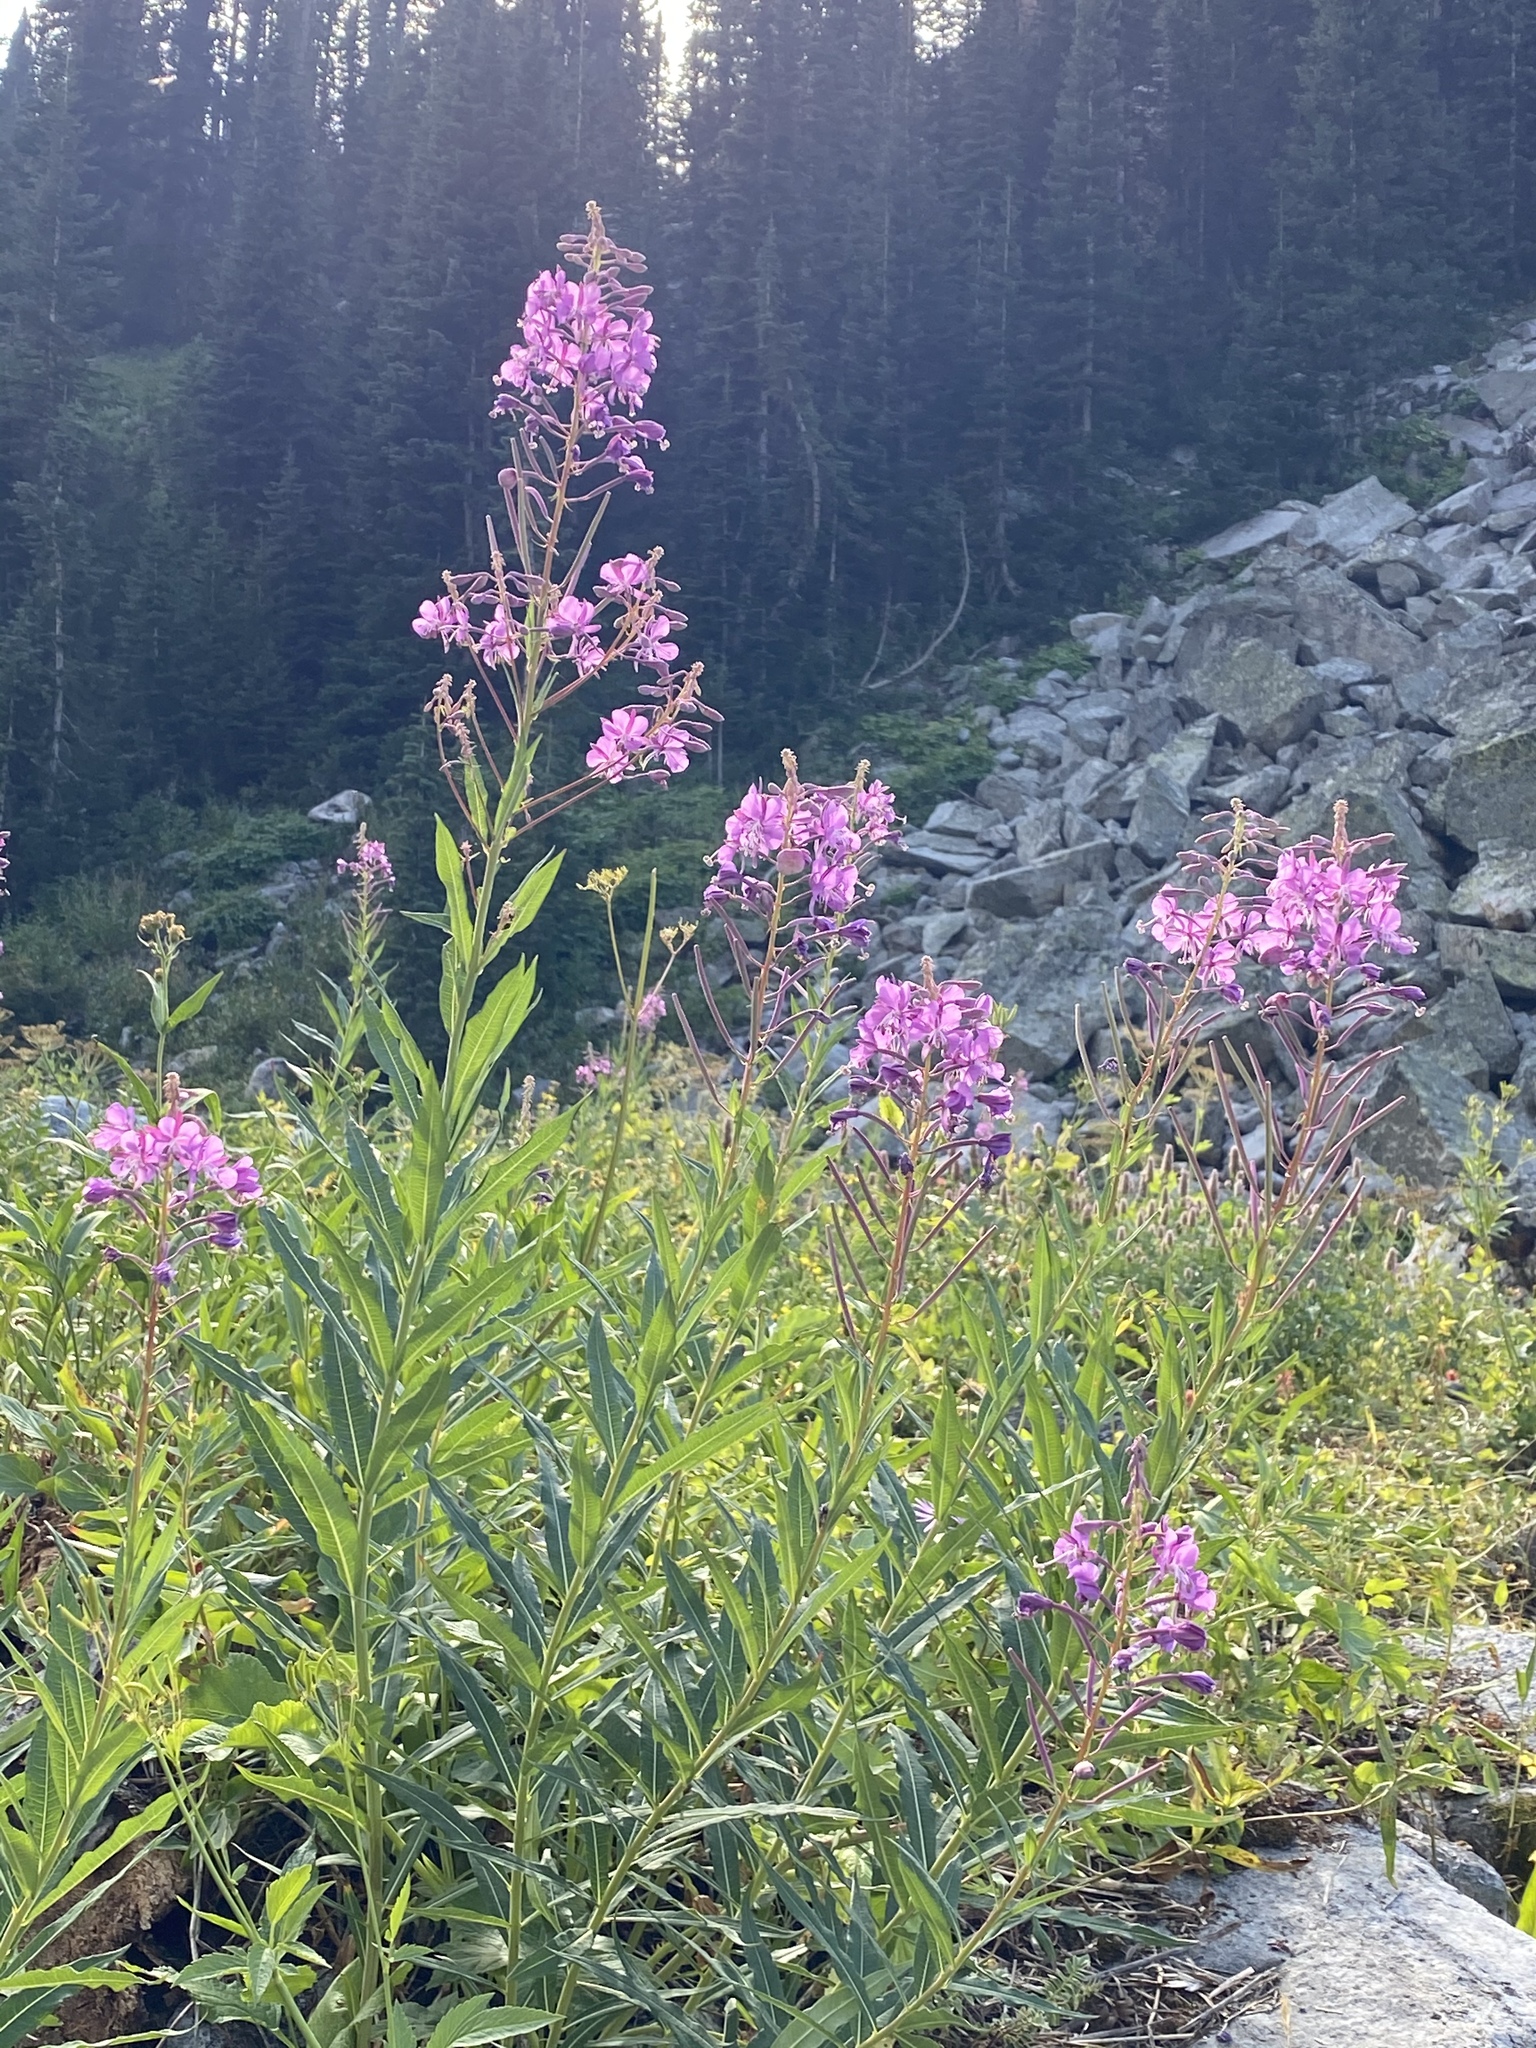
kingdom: Plantae
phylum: Tracheophyta
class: Magnoliopsida
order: Myrtales
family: Onagraceae
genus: Chamaenerion
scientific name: Chamaenerion angustifolium
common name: Fireweed
